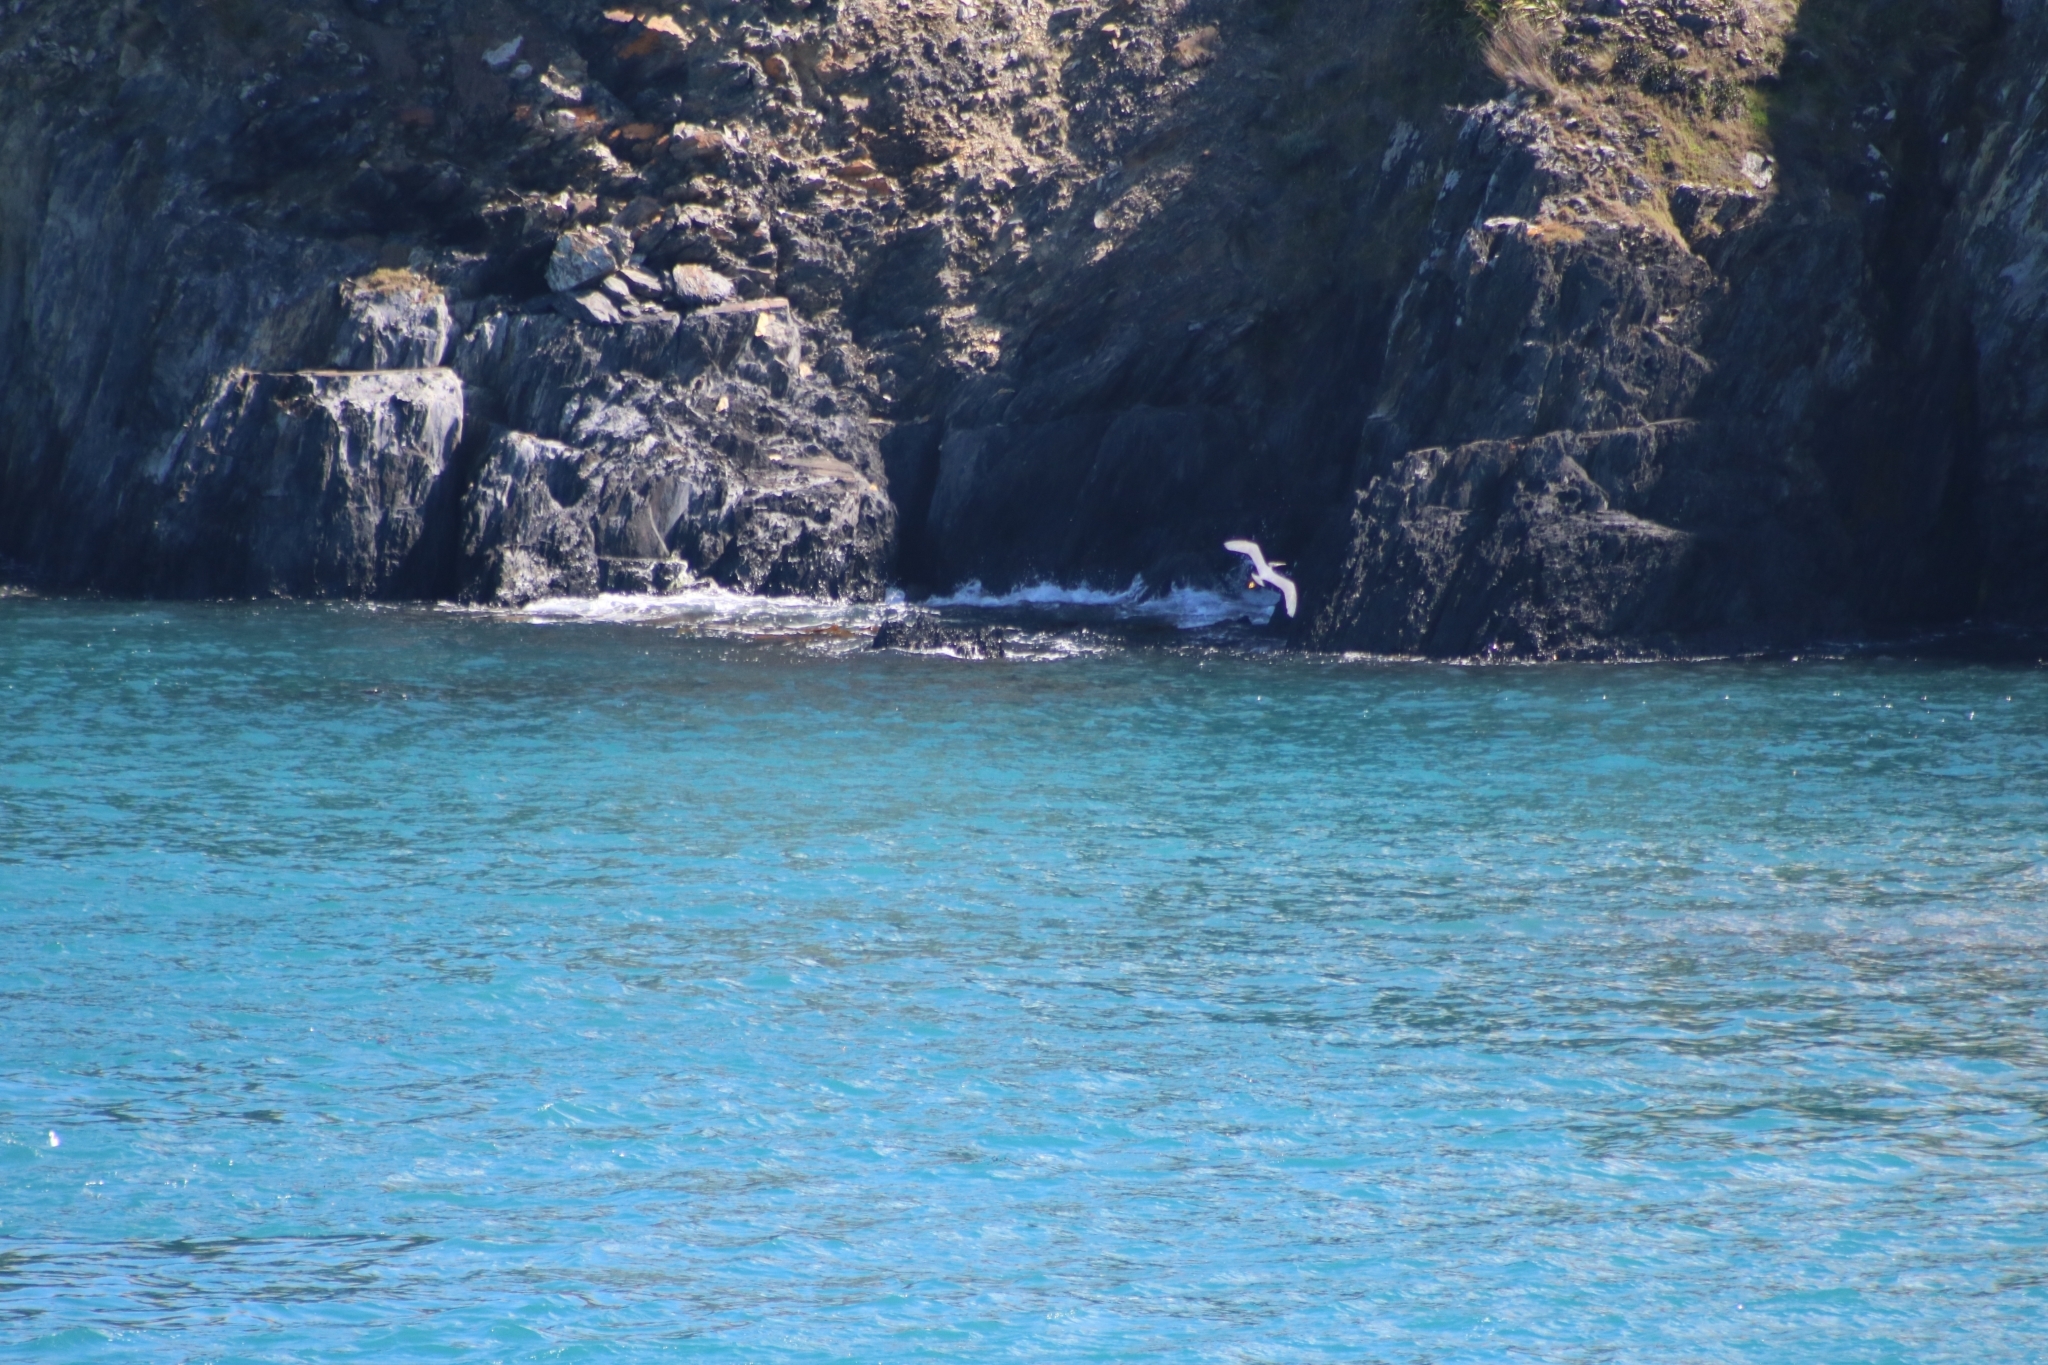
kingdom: Animalia
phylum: Chordata
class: Aves
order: Pelecaniformes
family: Ardeidae
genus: Egretta
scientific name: Egretta sacra
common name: Pacific reef heron
